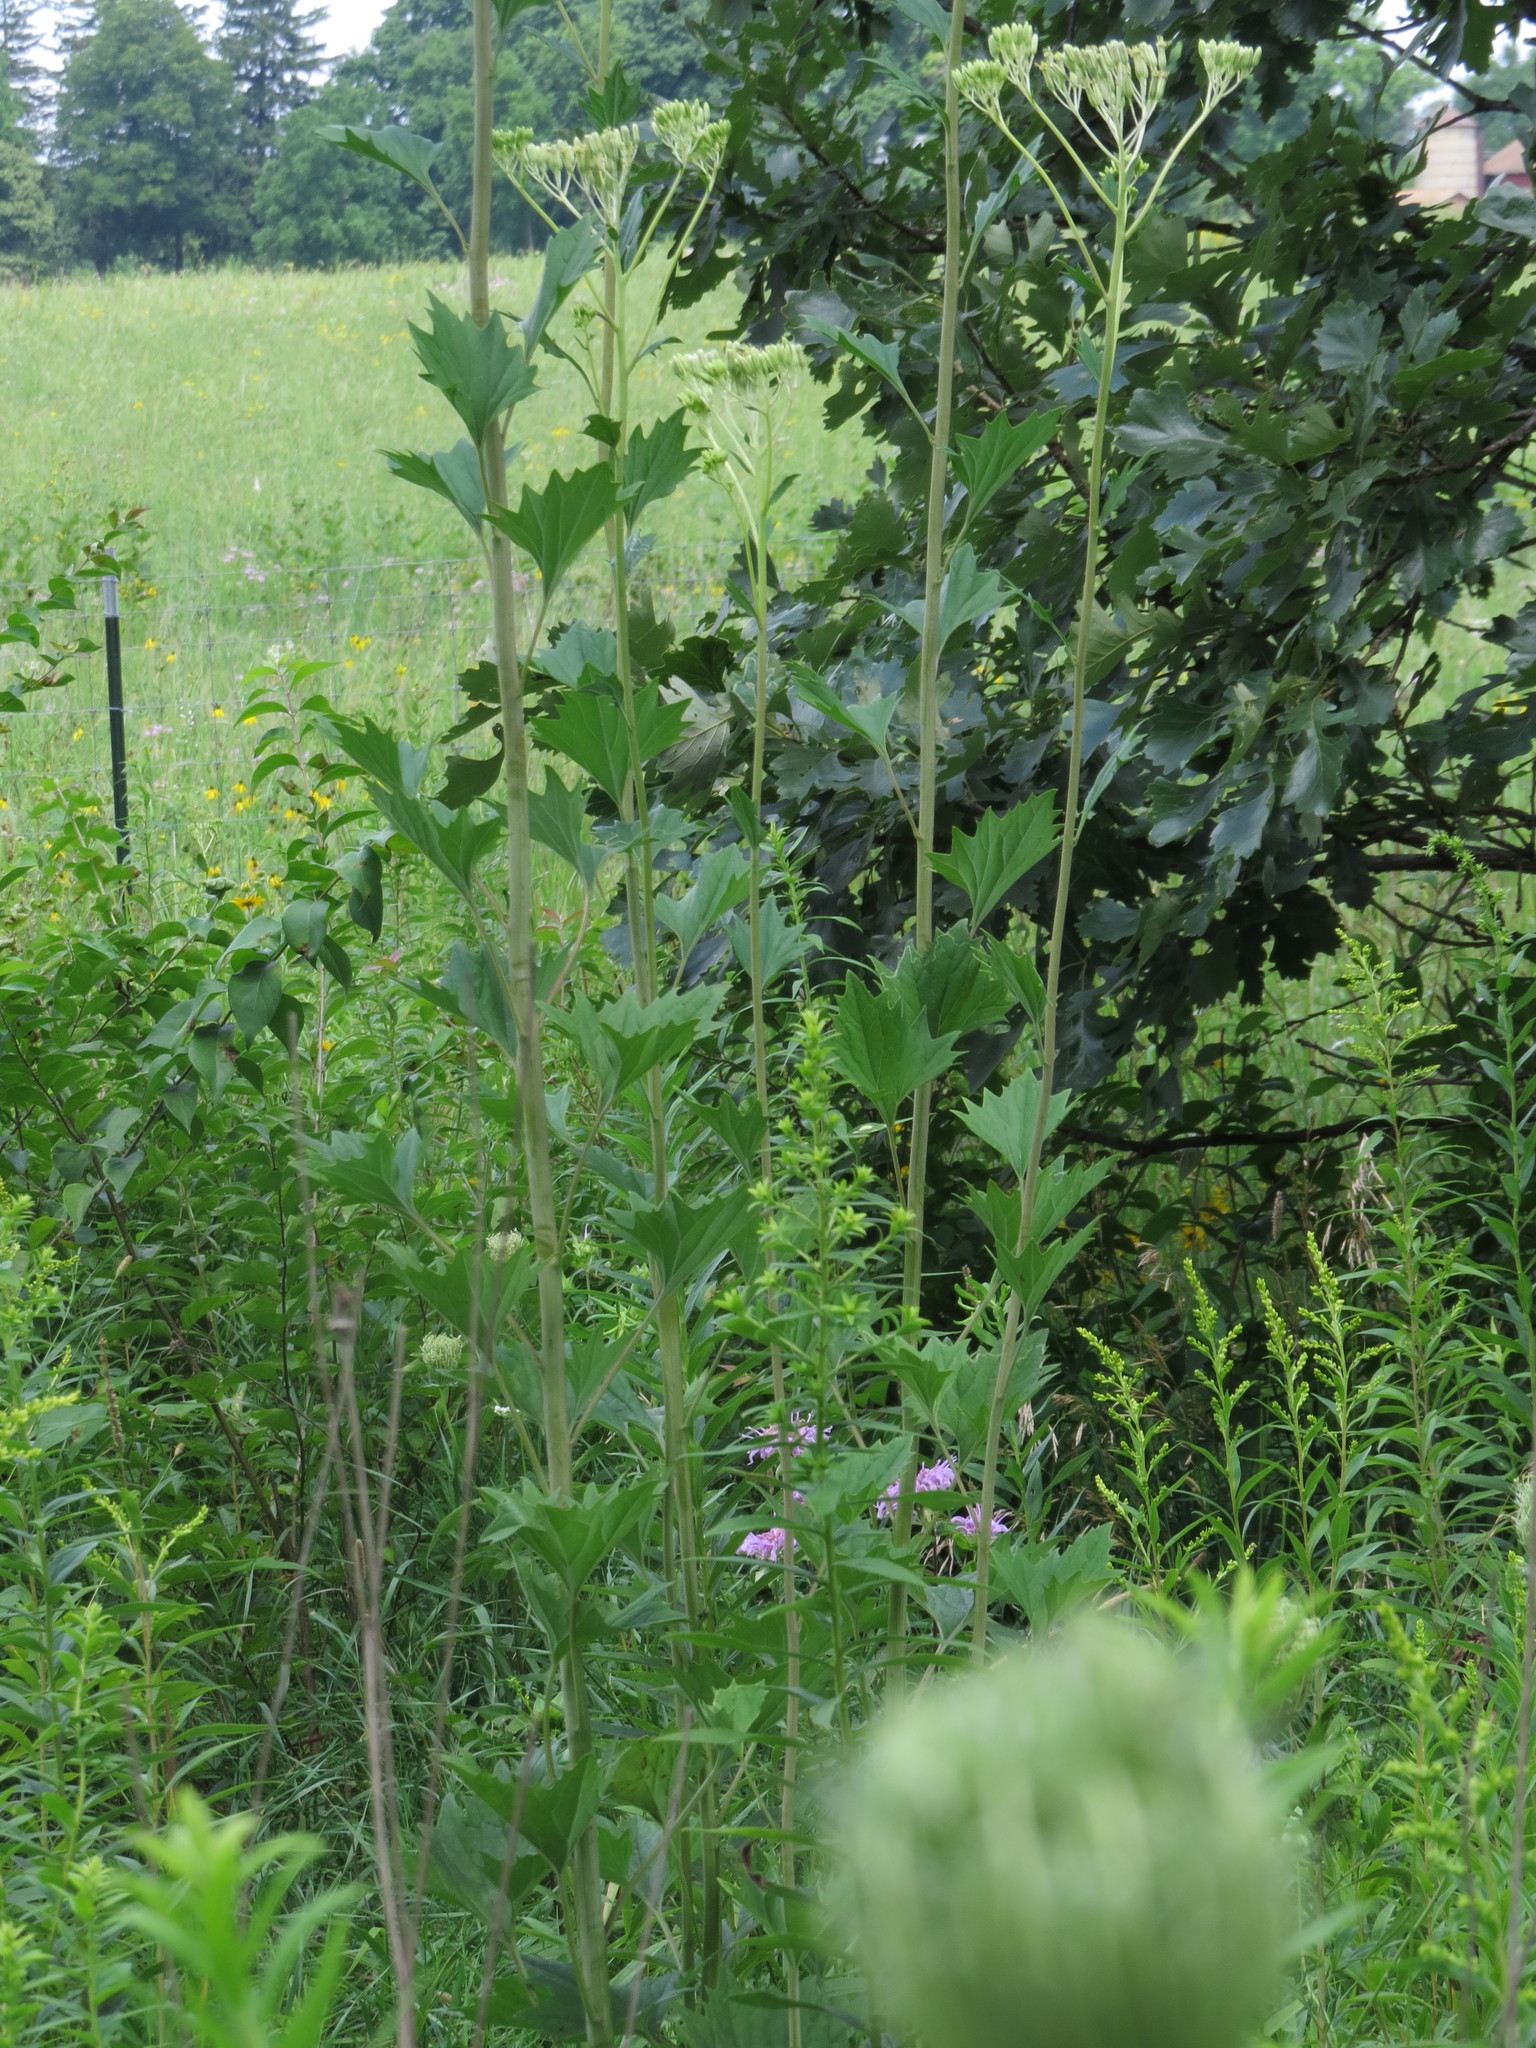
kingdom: Plantae
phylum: Tracheophyta
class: Magnoliopsida
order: Asterales
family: Asteraceae
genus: Arnoglossum
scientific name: Arnoglossum atriplicifolium
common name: Pale indian-plantain
